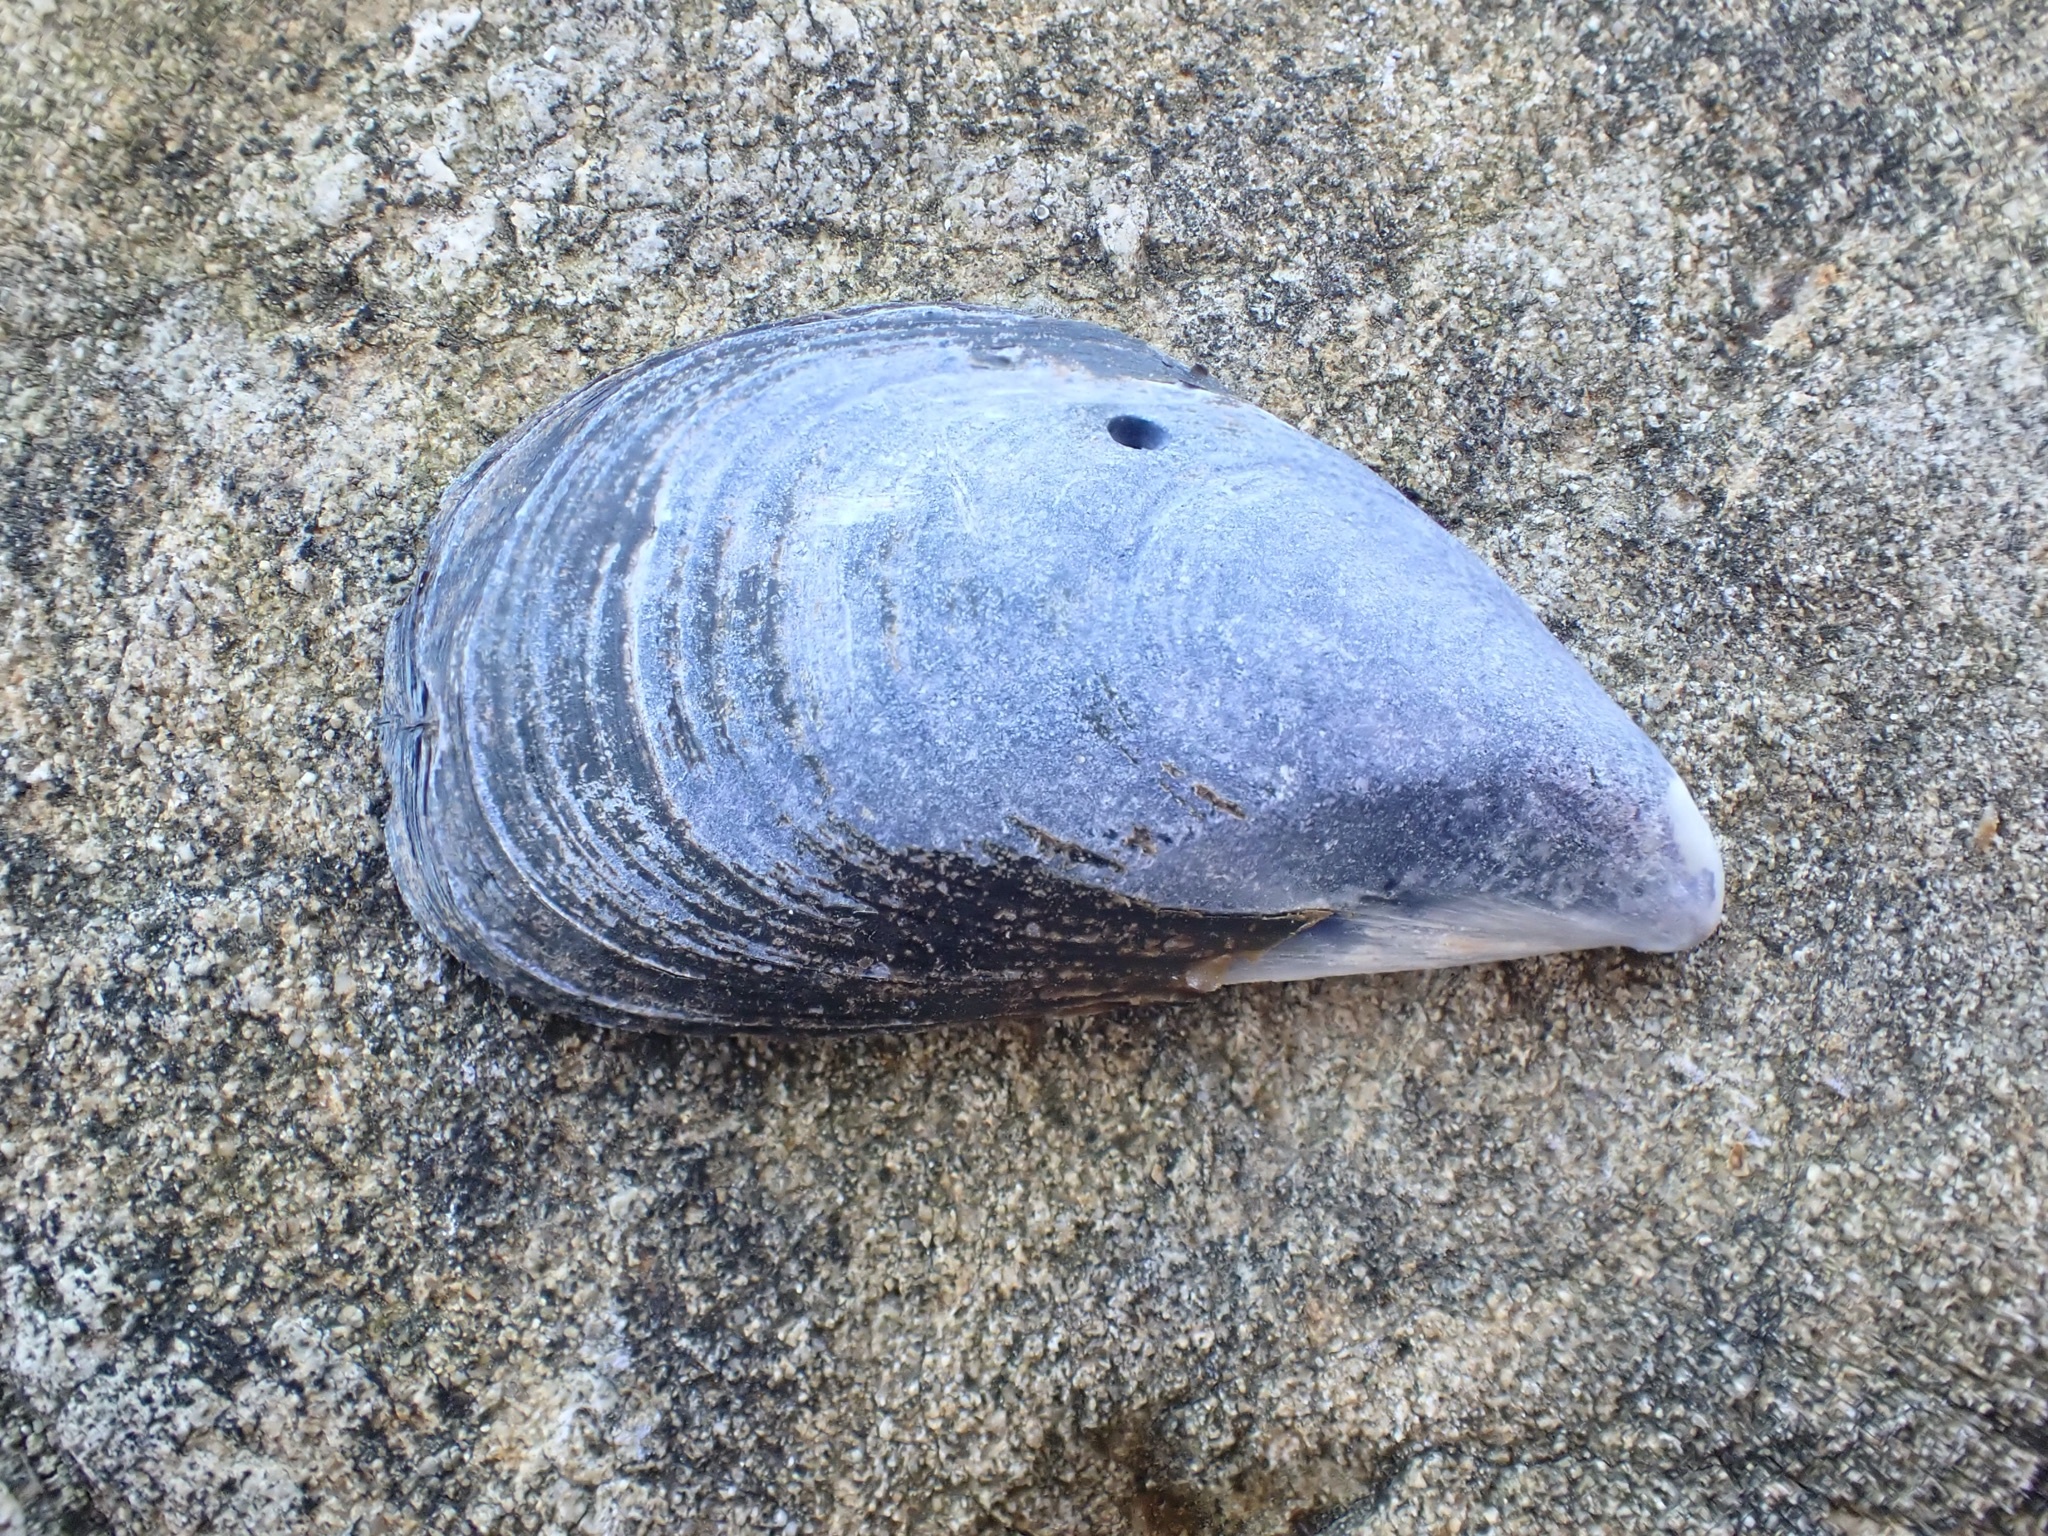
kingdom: Animalia
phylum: Mollusca
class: Bivalvia
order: Mytilida
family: Mytilidae
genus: Mytilus
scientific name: Mytilus planulatus
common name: Australian mussel
